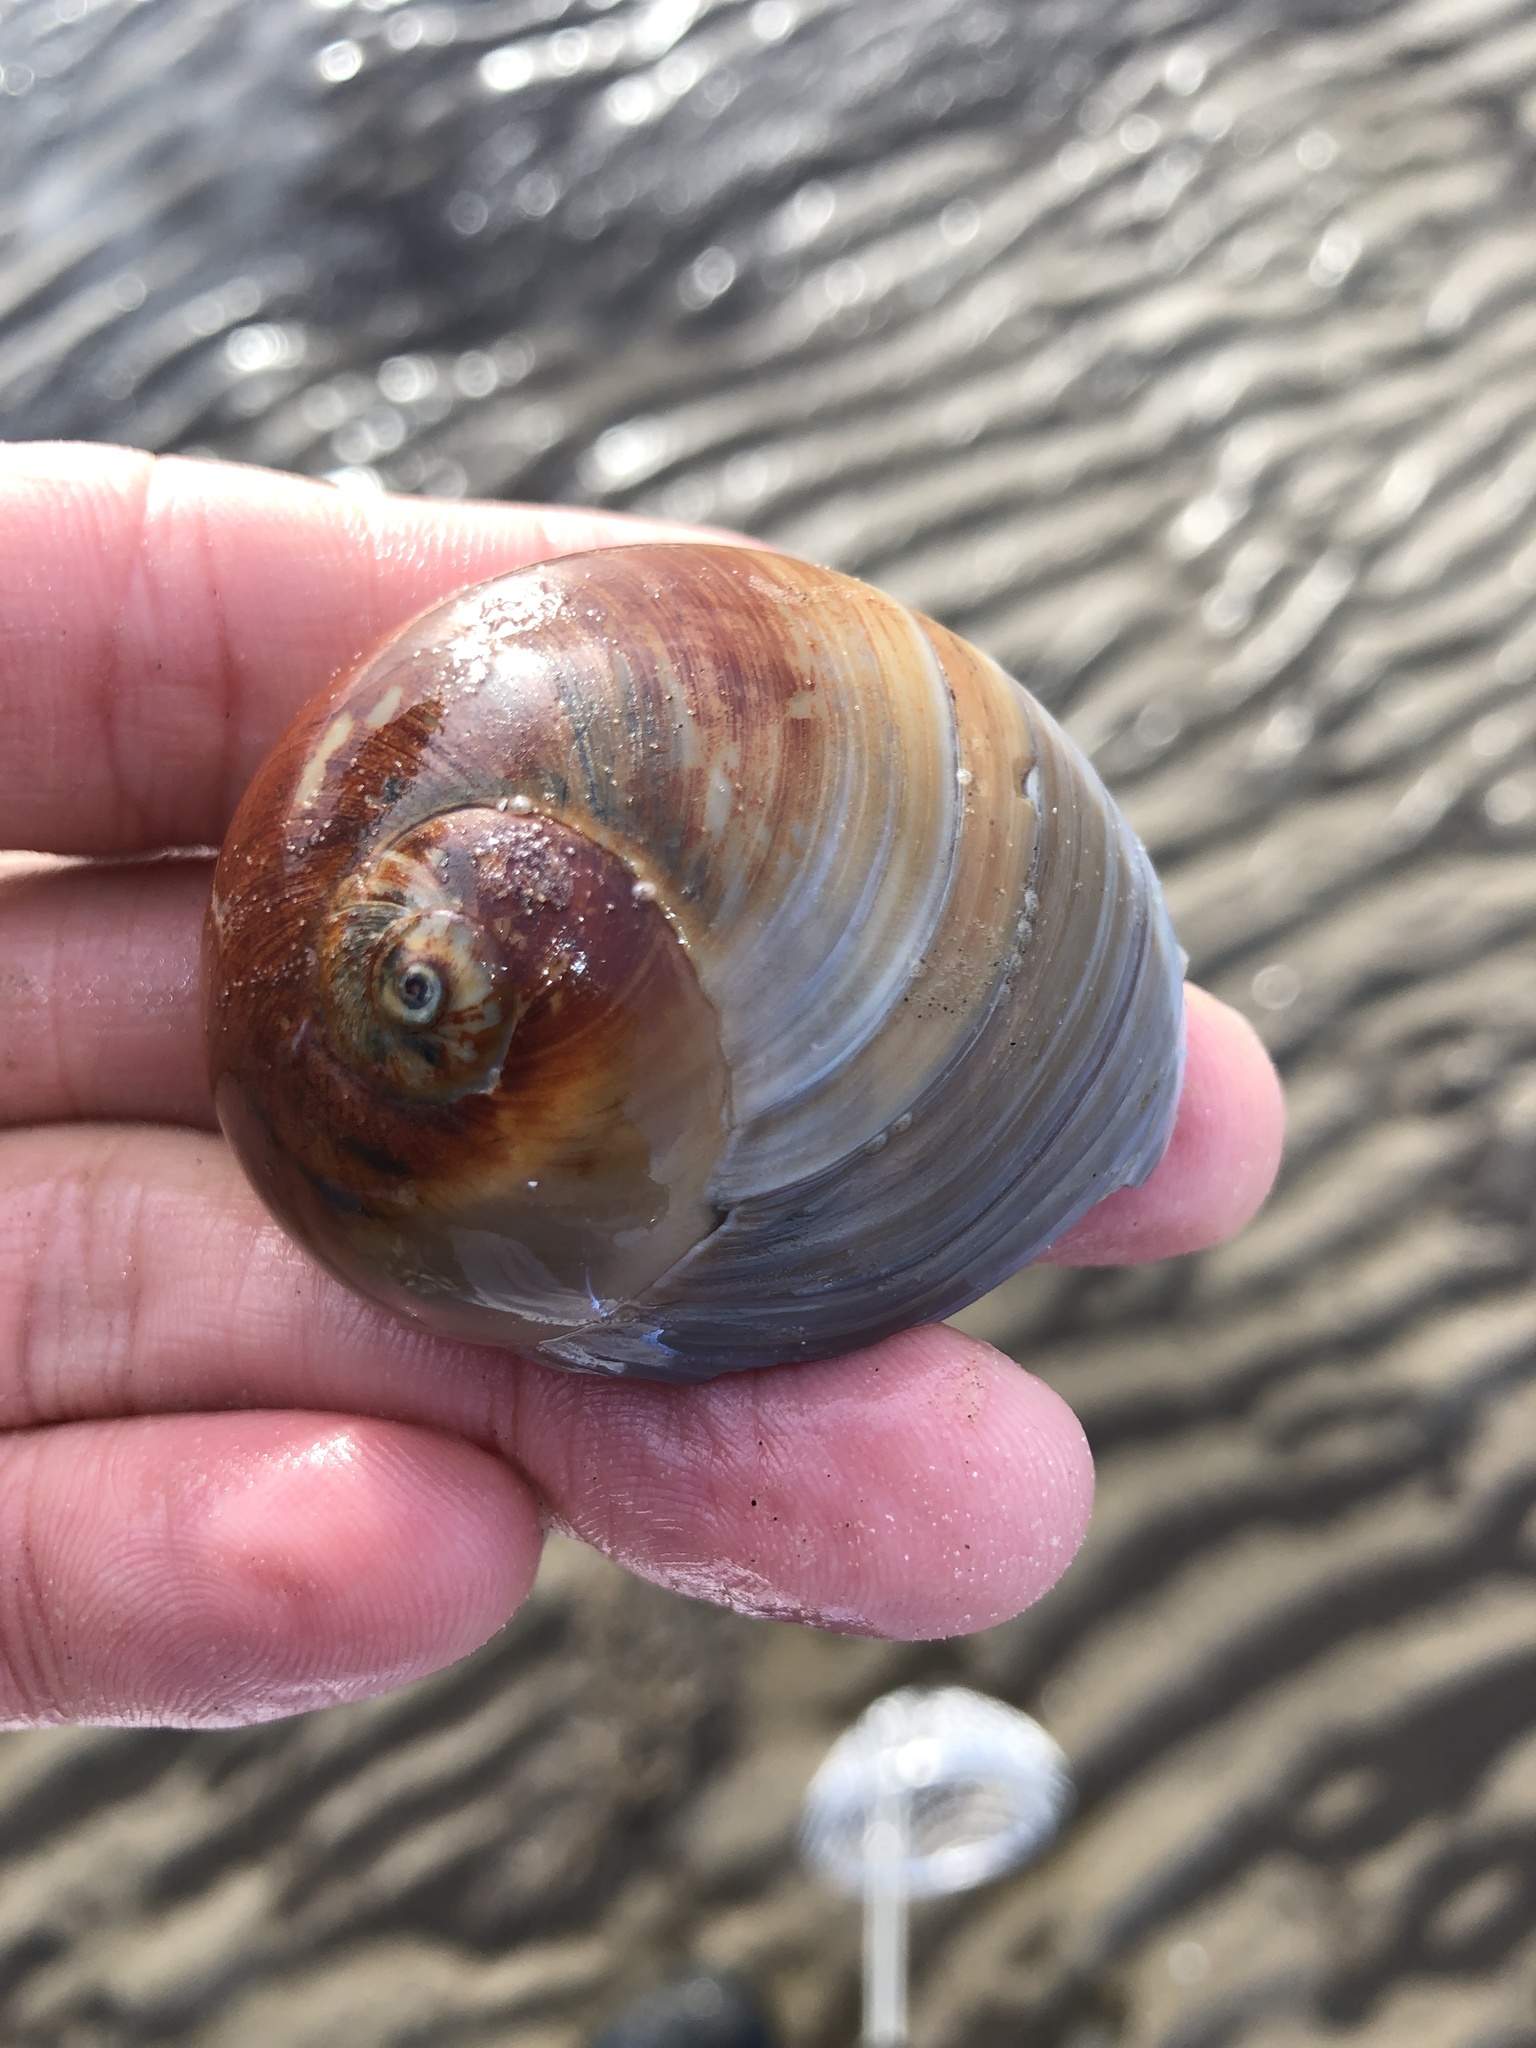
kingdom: Animalia
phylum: Mollusca
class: Gastropoda
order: Littorinimorpha
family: Naticidae
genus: Neverita
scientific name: Neverita duplicata
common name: Lobed moonsnail
